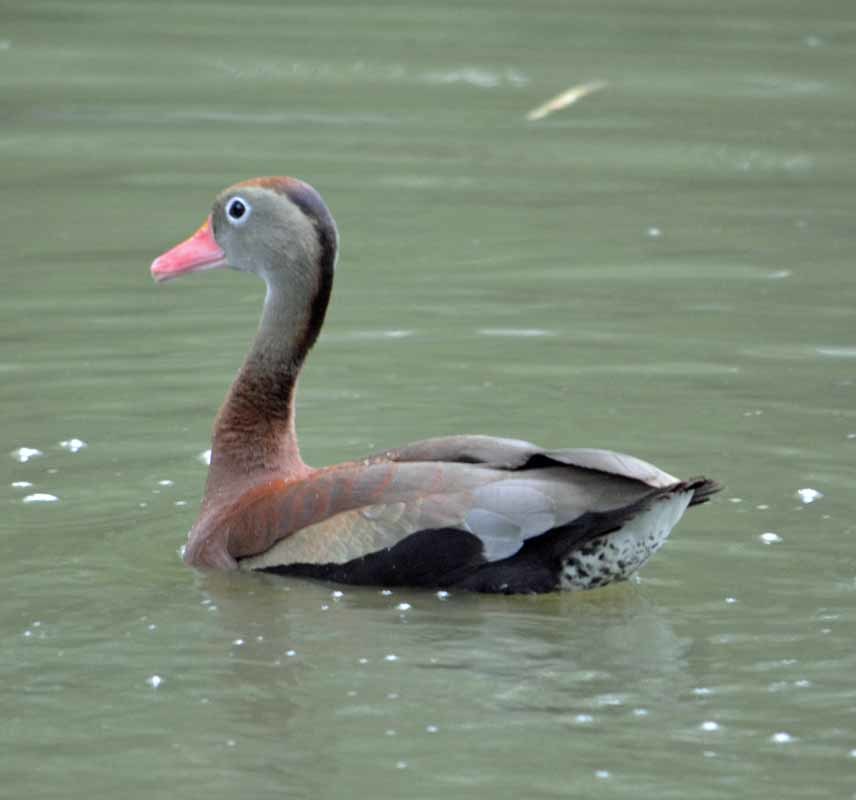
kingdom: Animalia
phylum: Chordata
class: Aves
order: Anseriformes
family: Anatidae
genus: Dendrocygna
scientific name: Dendrocygna autumnalis
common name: Black-bellied whistling duck
